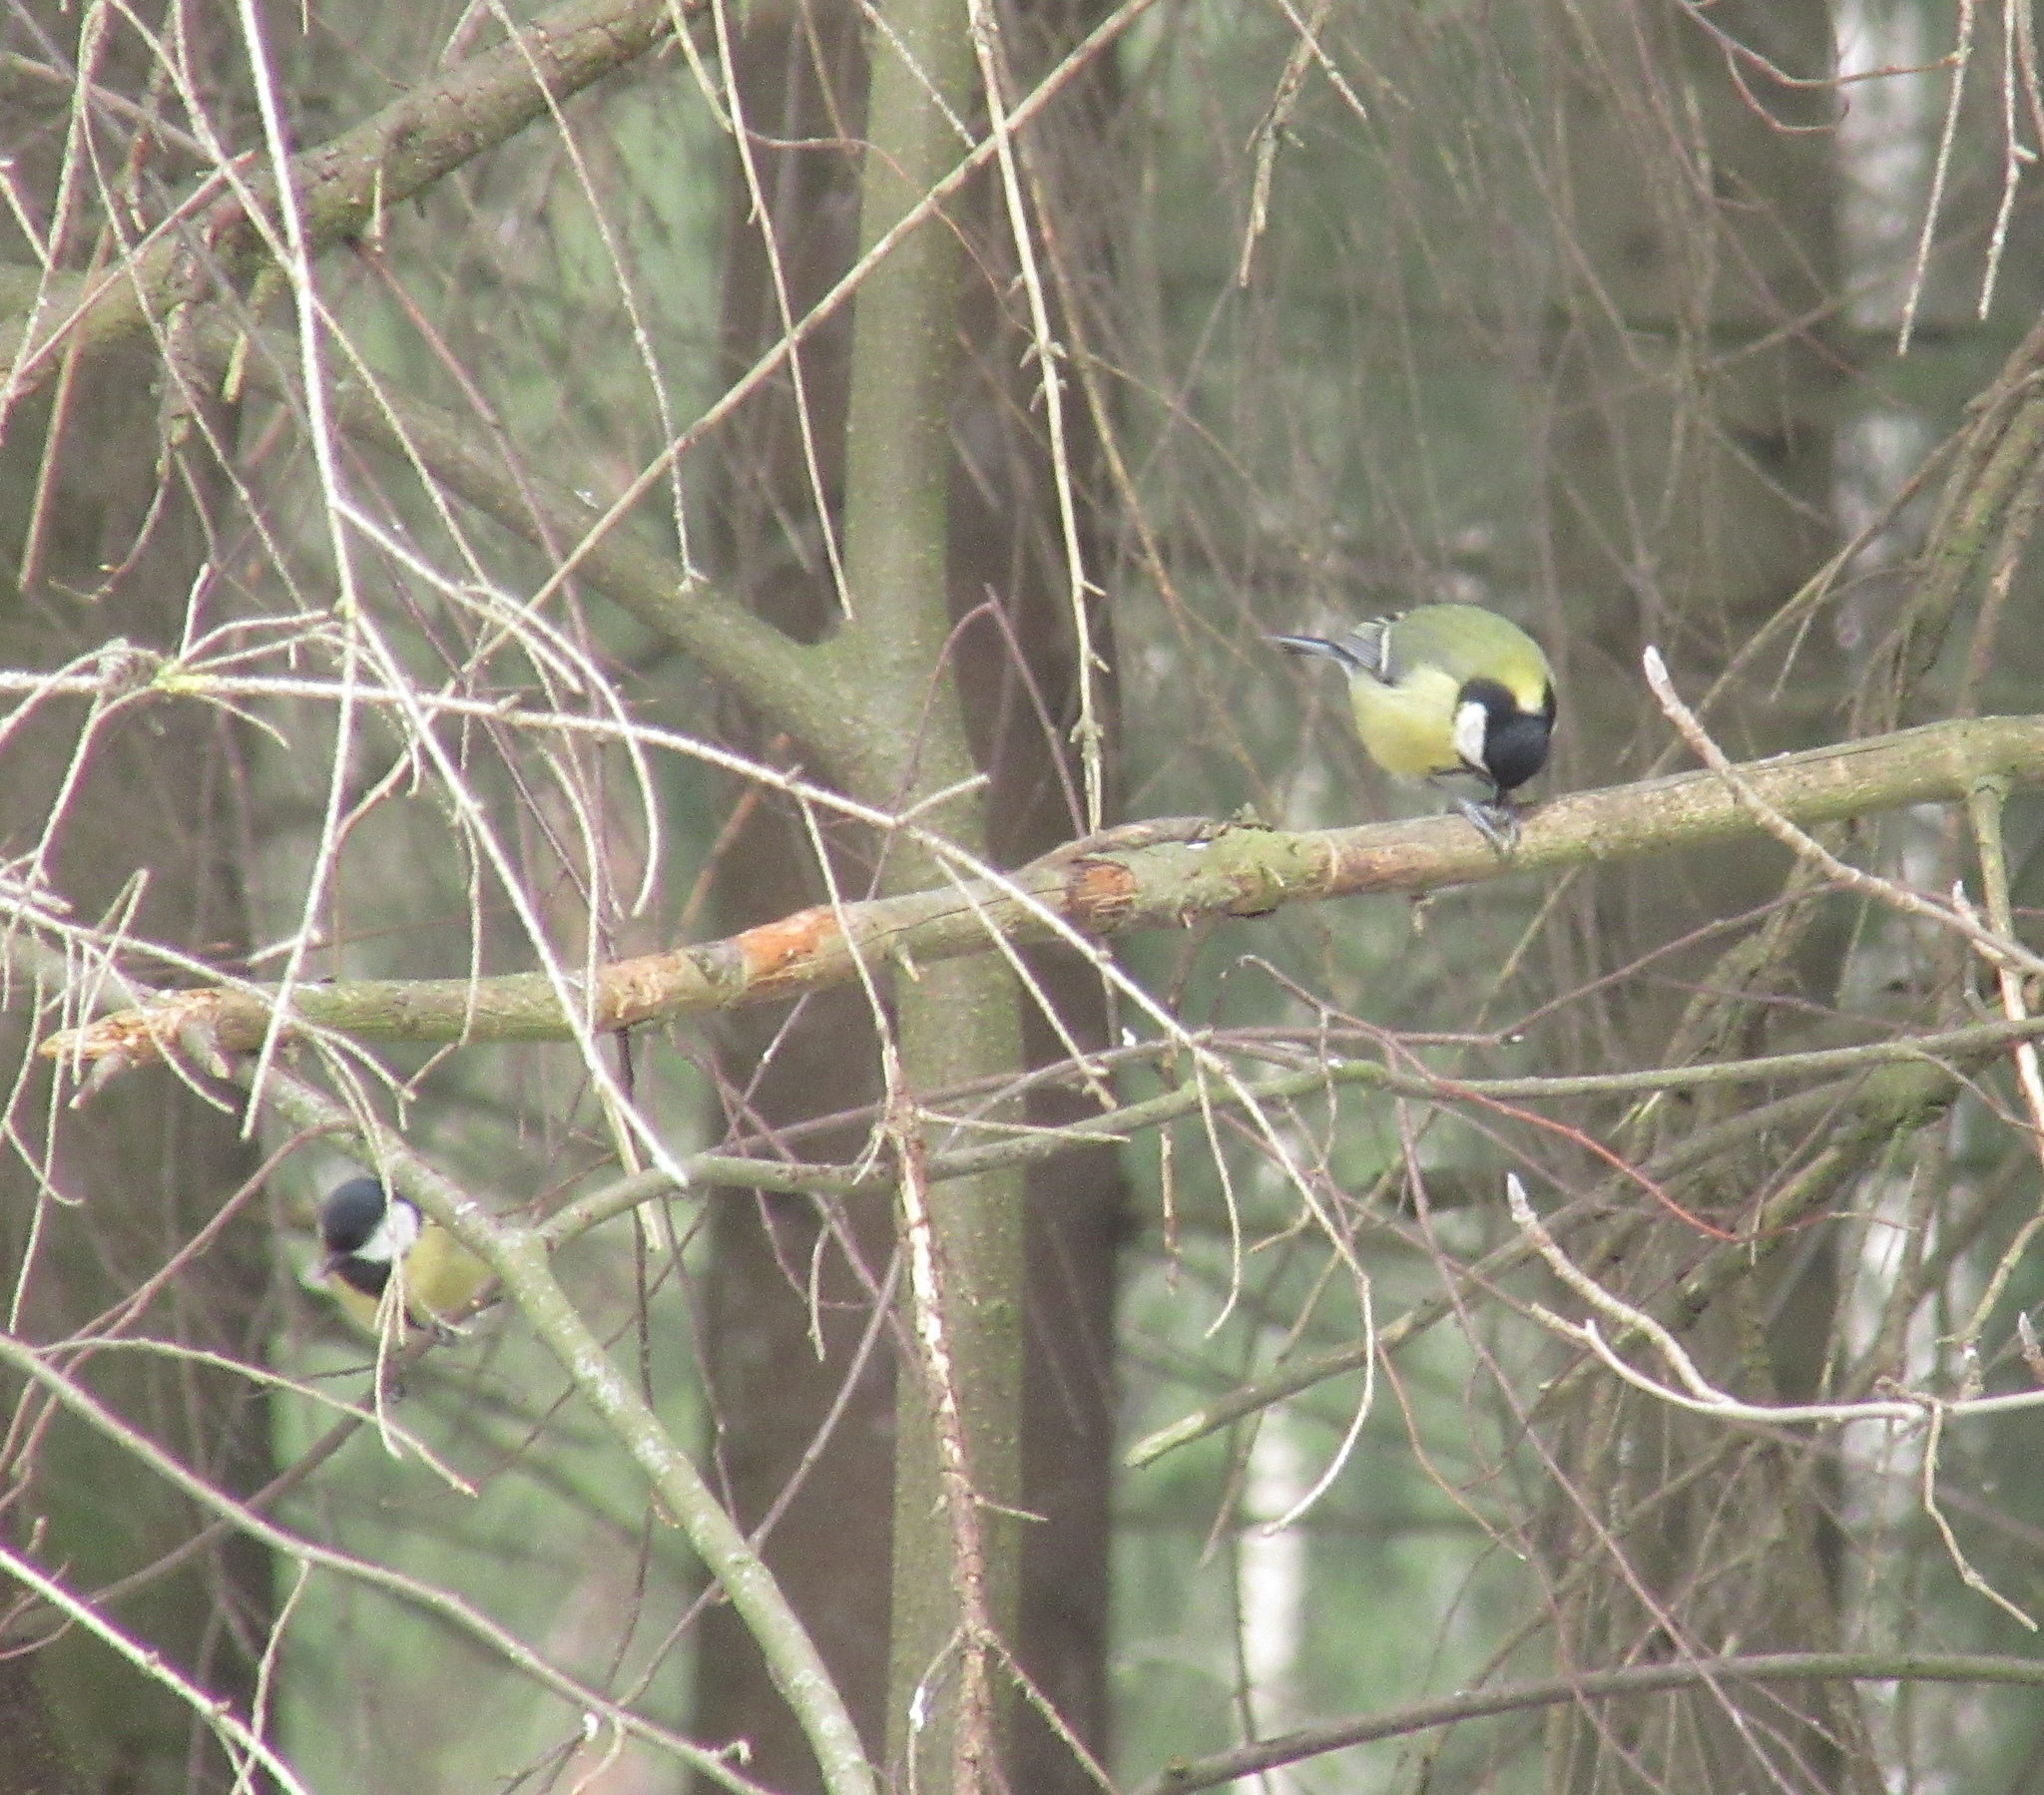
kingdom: Animalia
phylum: Chordata
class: Aves
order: Passeriformes
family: Paridae
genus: Parus
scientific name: Parus major
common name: Great tit
